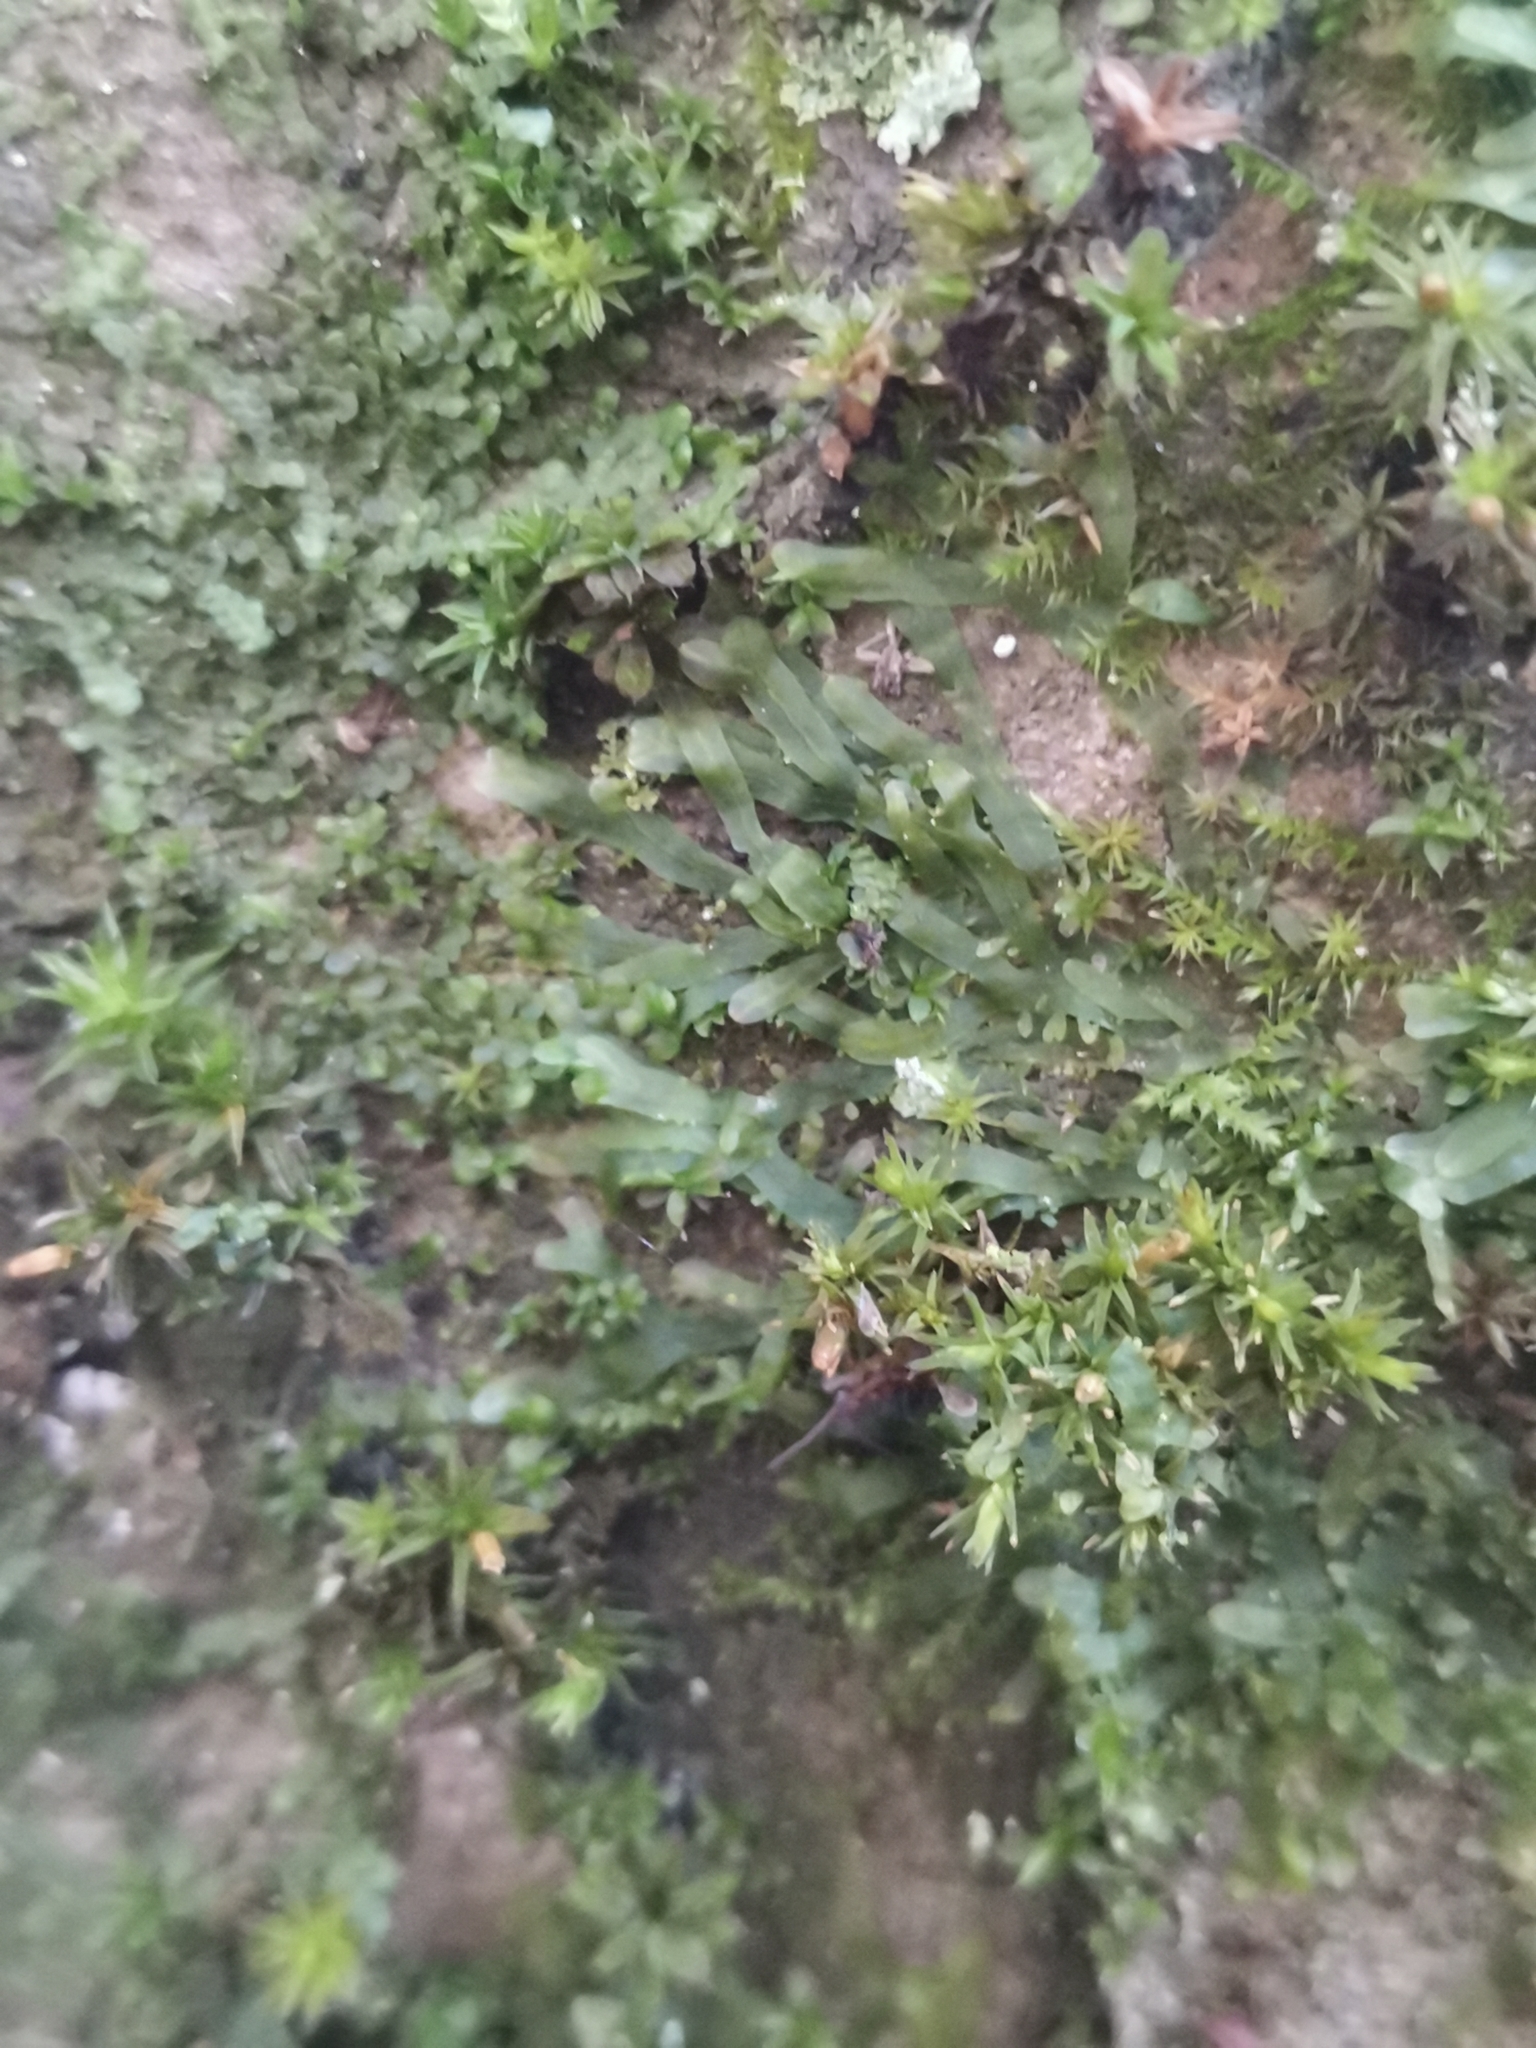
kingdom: Plantae
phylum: Marchantiophyta
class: Jungermanniopsida
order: Metzgeriales
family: Metzgeriaceae
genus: Metzgeria
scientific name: Metzgeria furcata
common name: Forked veilwort
